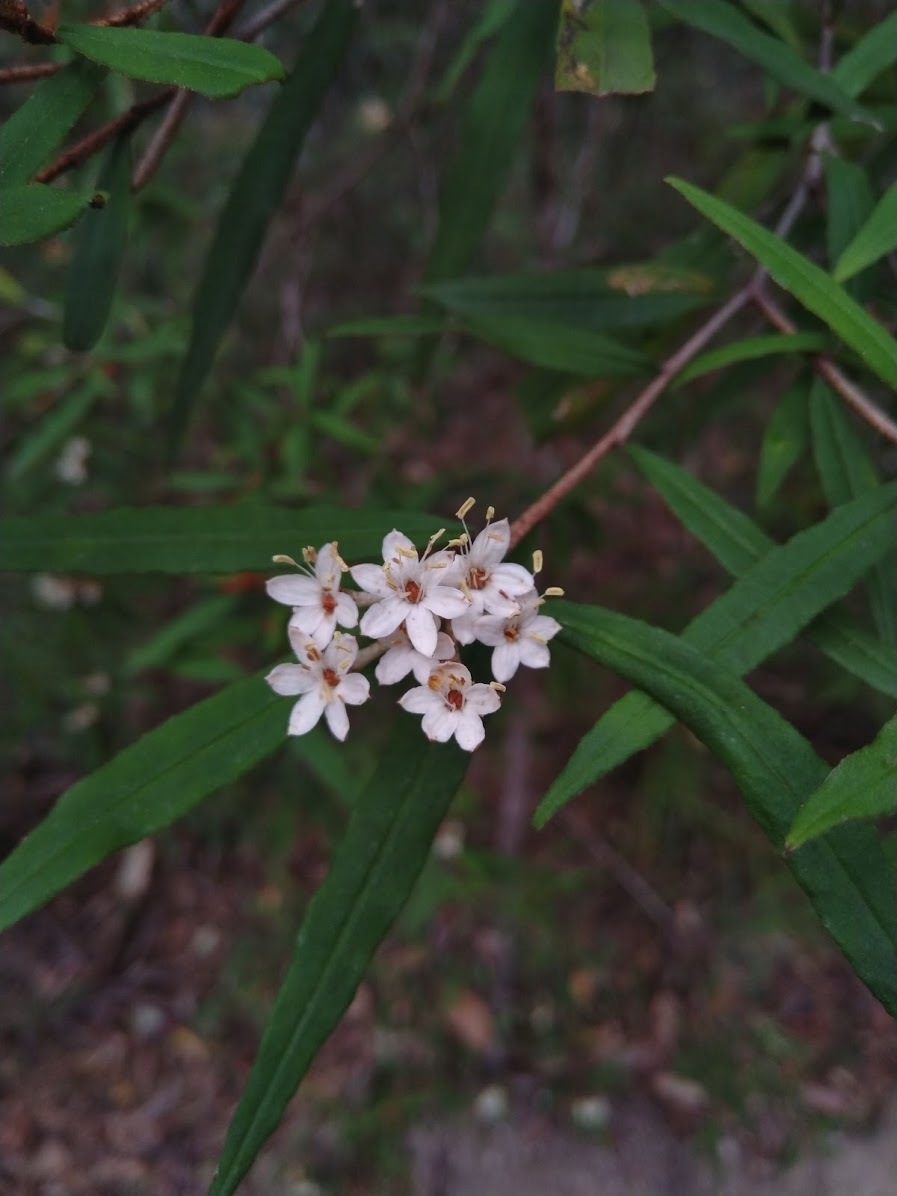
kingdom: Plantae
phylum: Tracheophyta
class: Magnoliopsida
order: Sapindales
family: Rutaceae
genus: Phebalium
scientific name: Phebalium woombye
